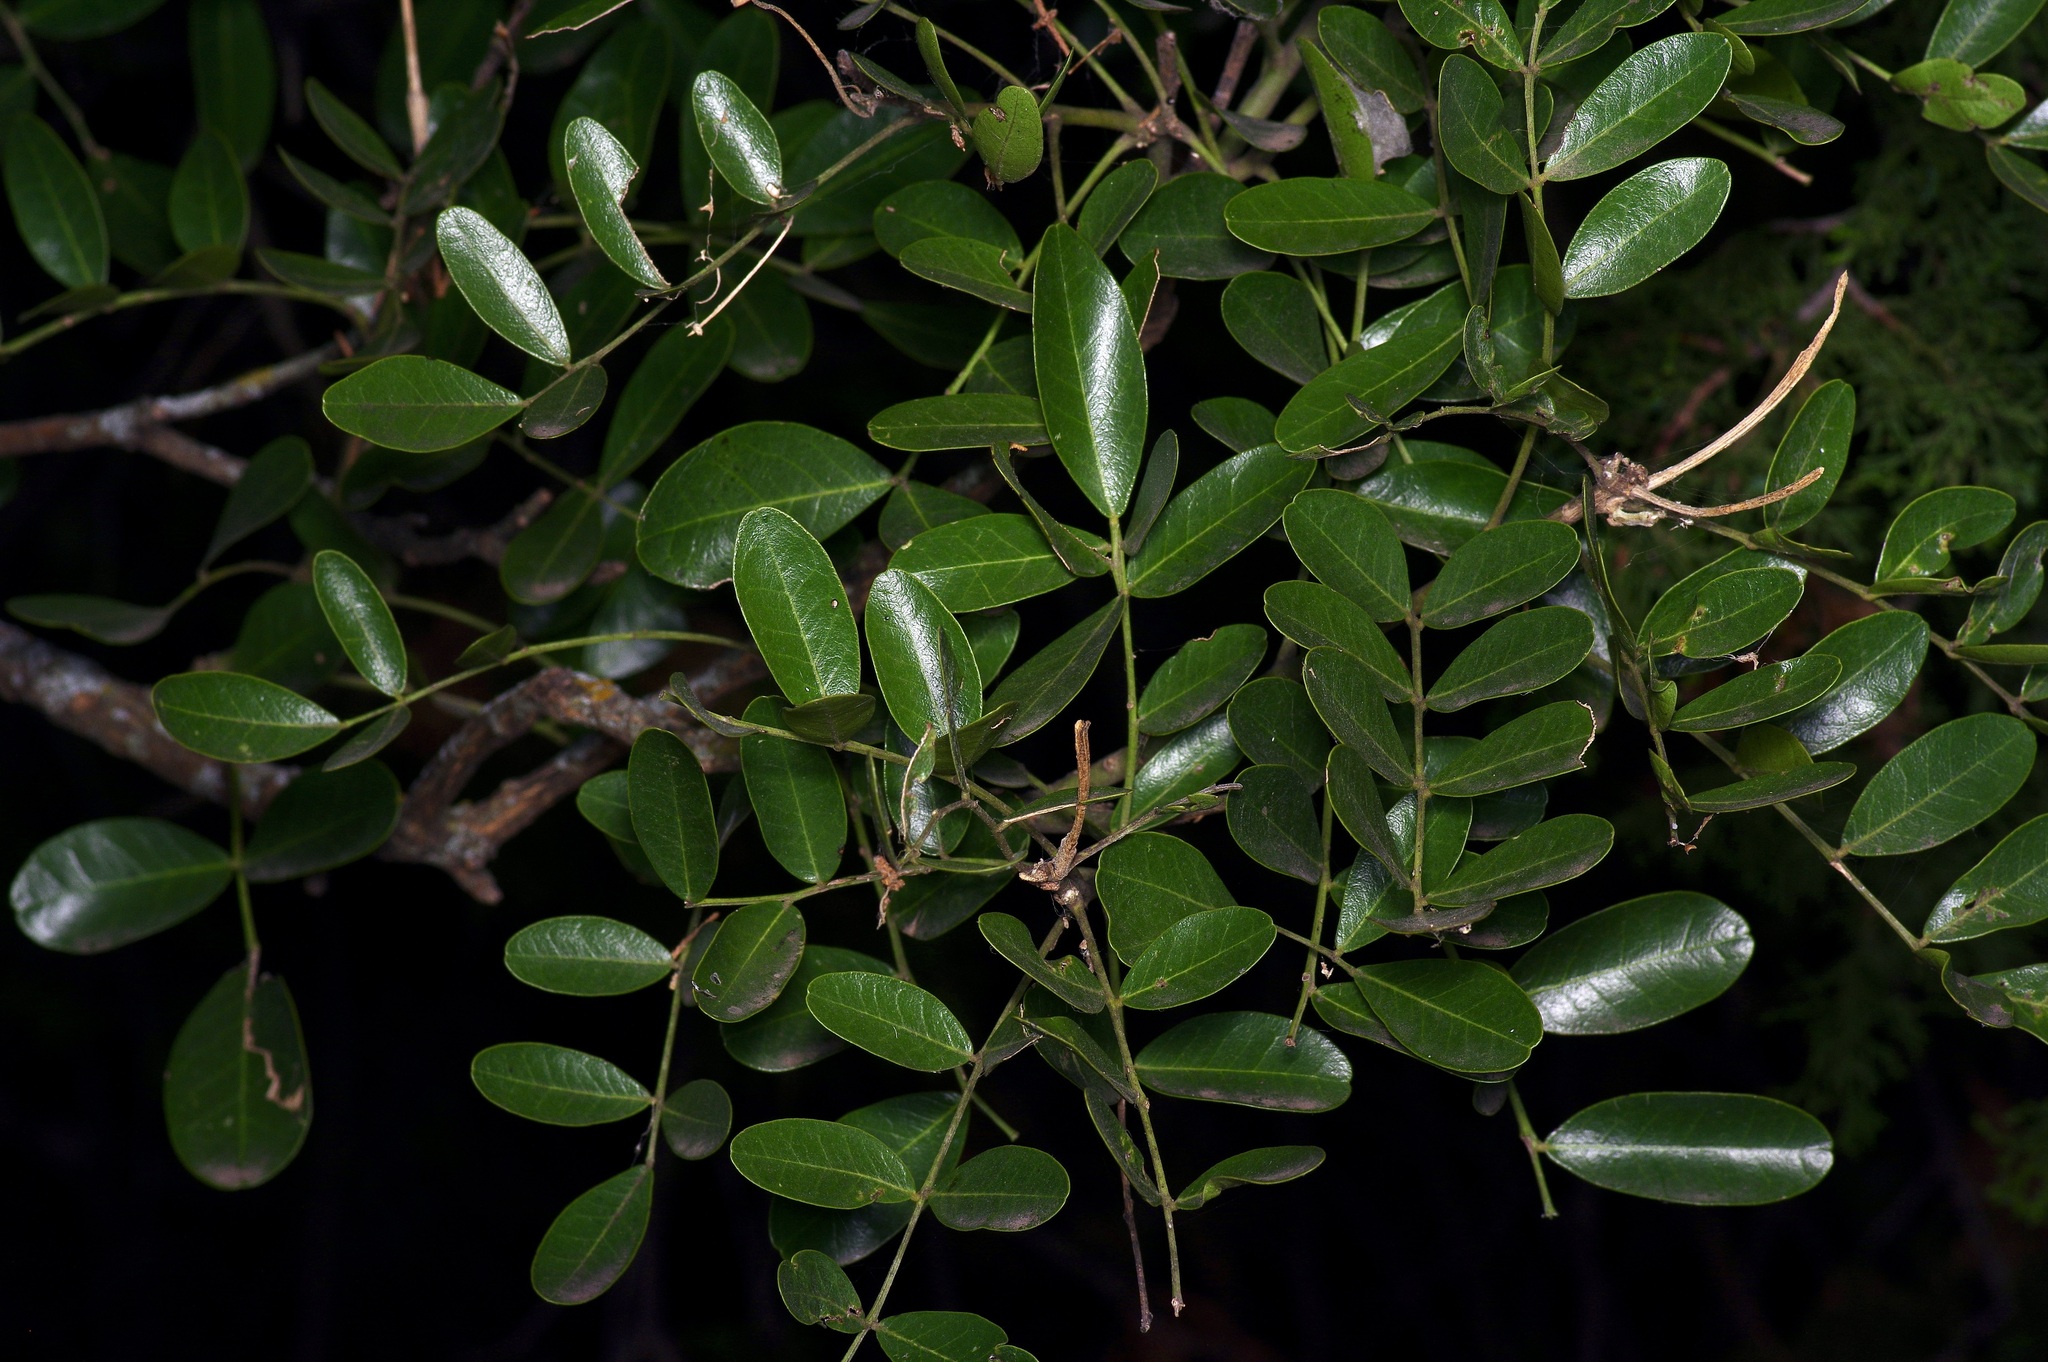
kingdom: Plantae
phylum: Tracheophyta
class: Magnoliopsida
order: Fabales
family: Fabaceae
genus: Dermatophyllum
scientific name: Dermatophyllum secundiflorum
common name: Texas-mountain-laurel
